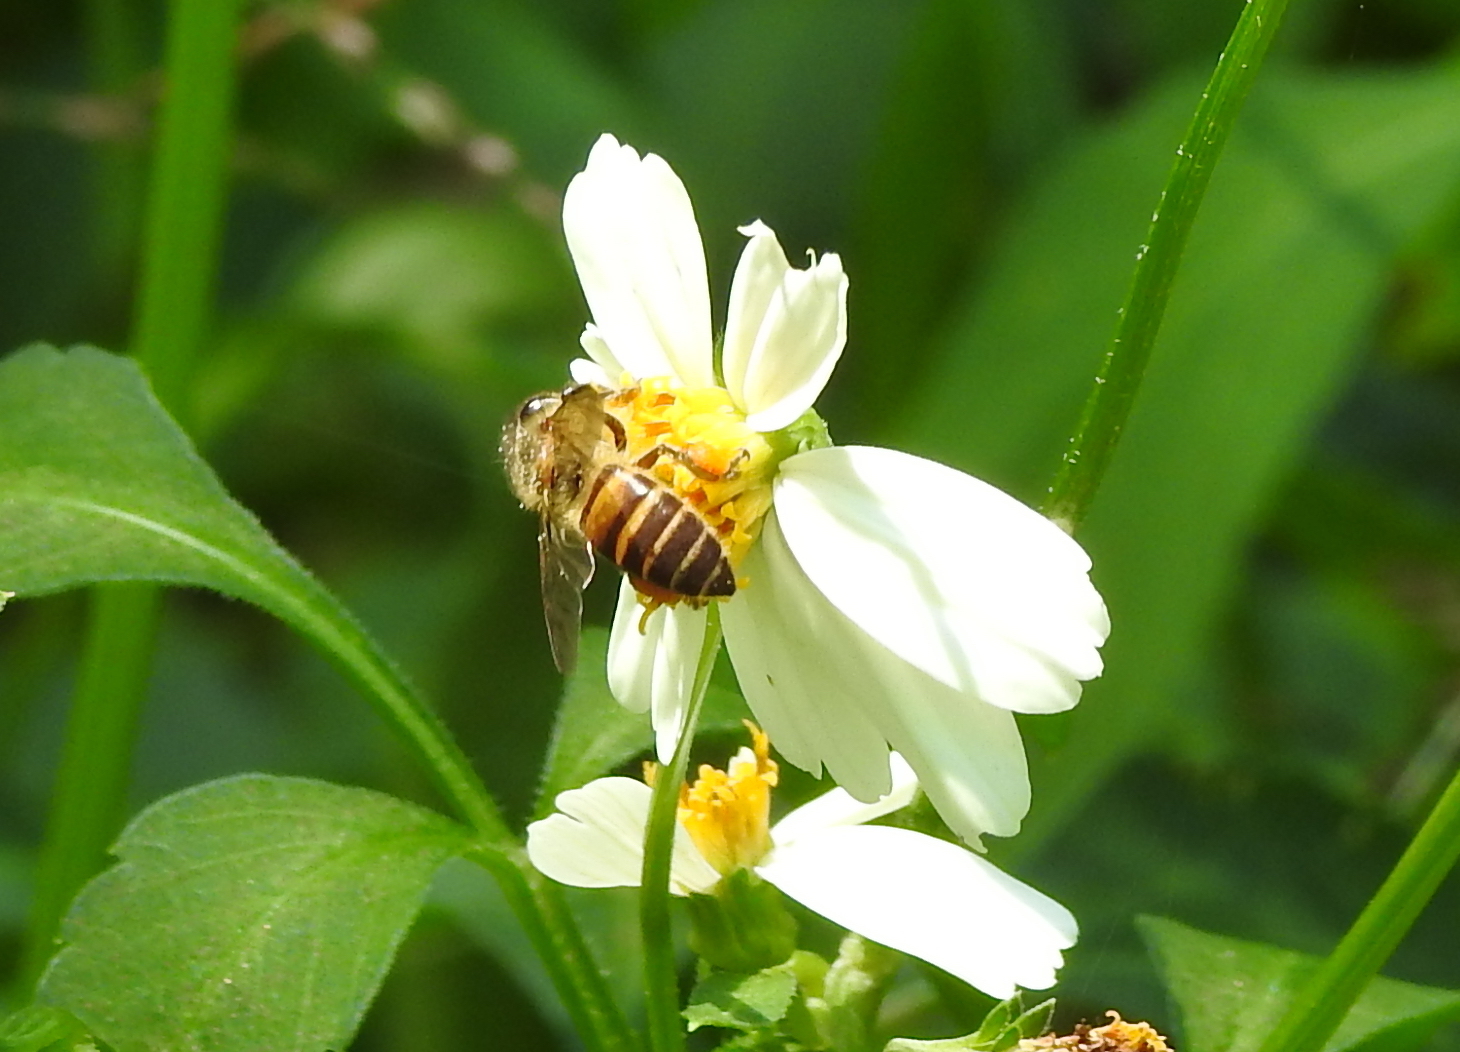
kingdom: Animalia
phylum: Arthropoda
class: Insecta
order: Hymenoptera
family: Apidae
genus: Apis
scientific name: Apis cerana
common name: Honey bee
